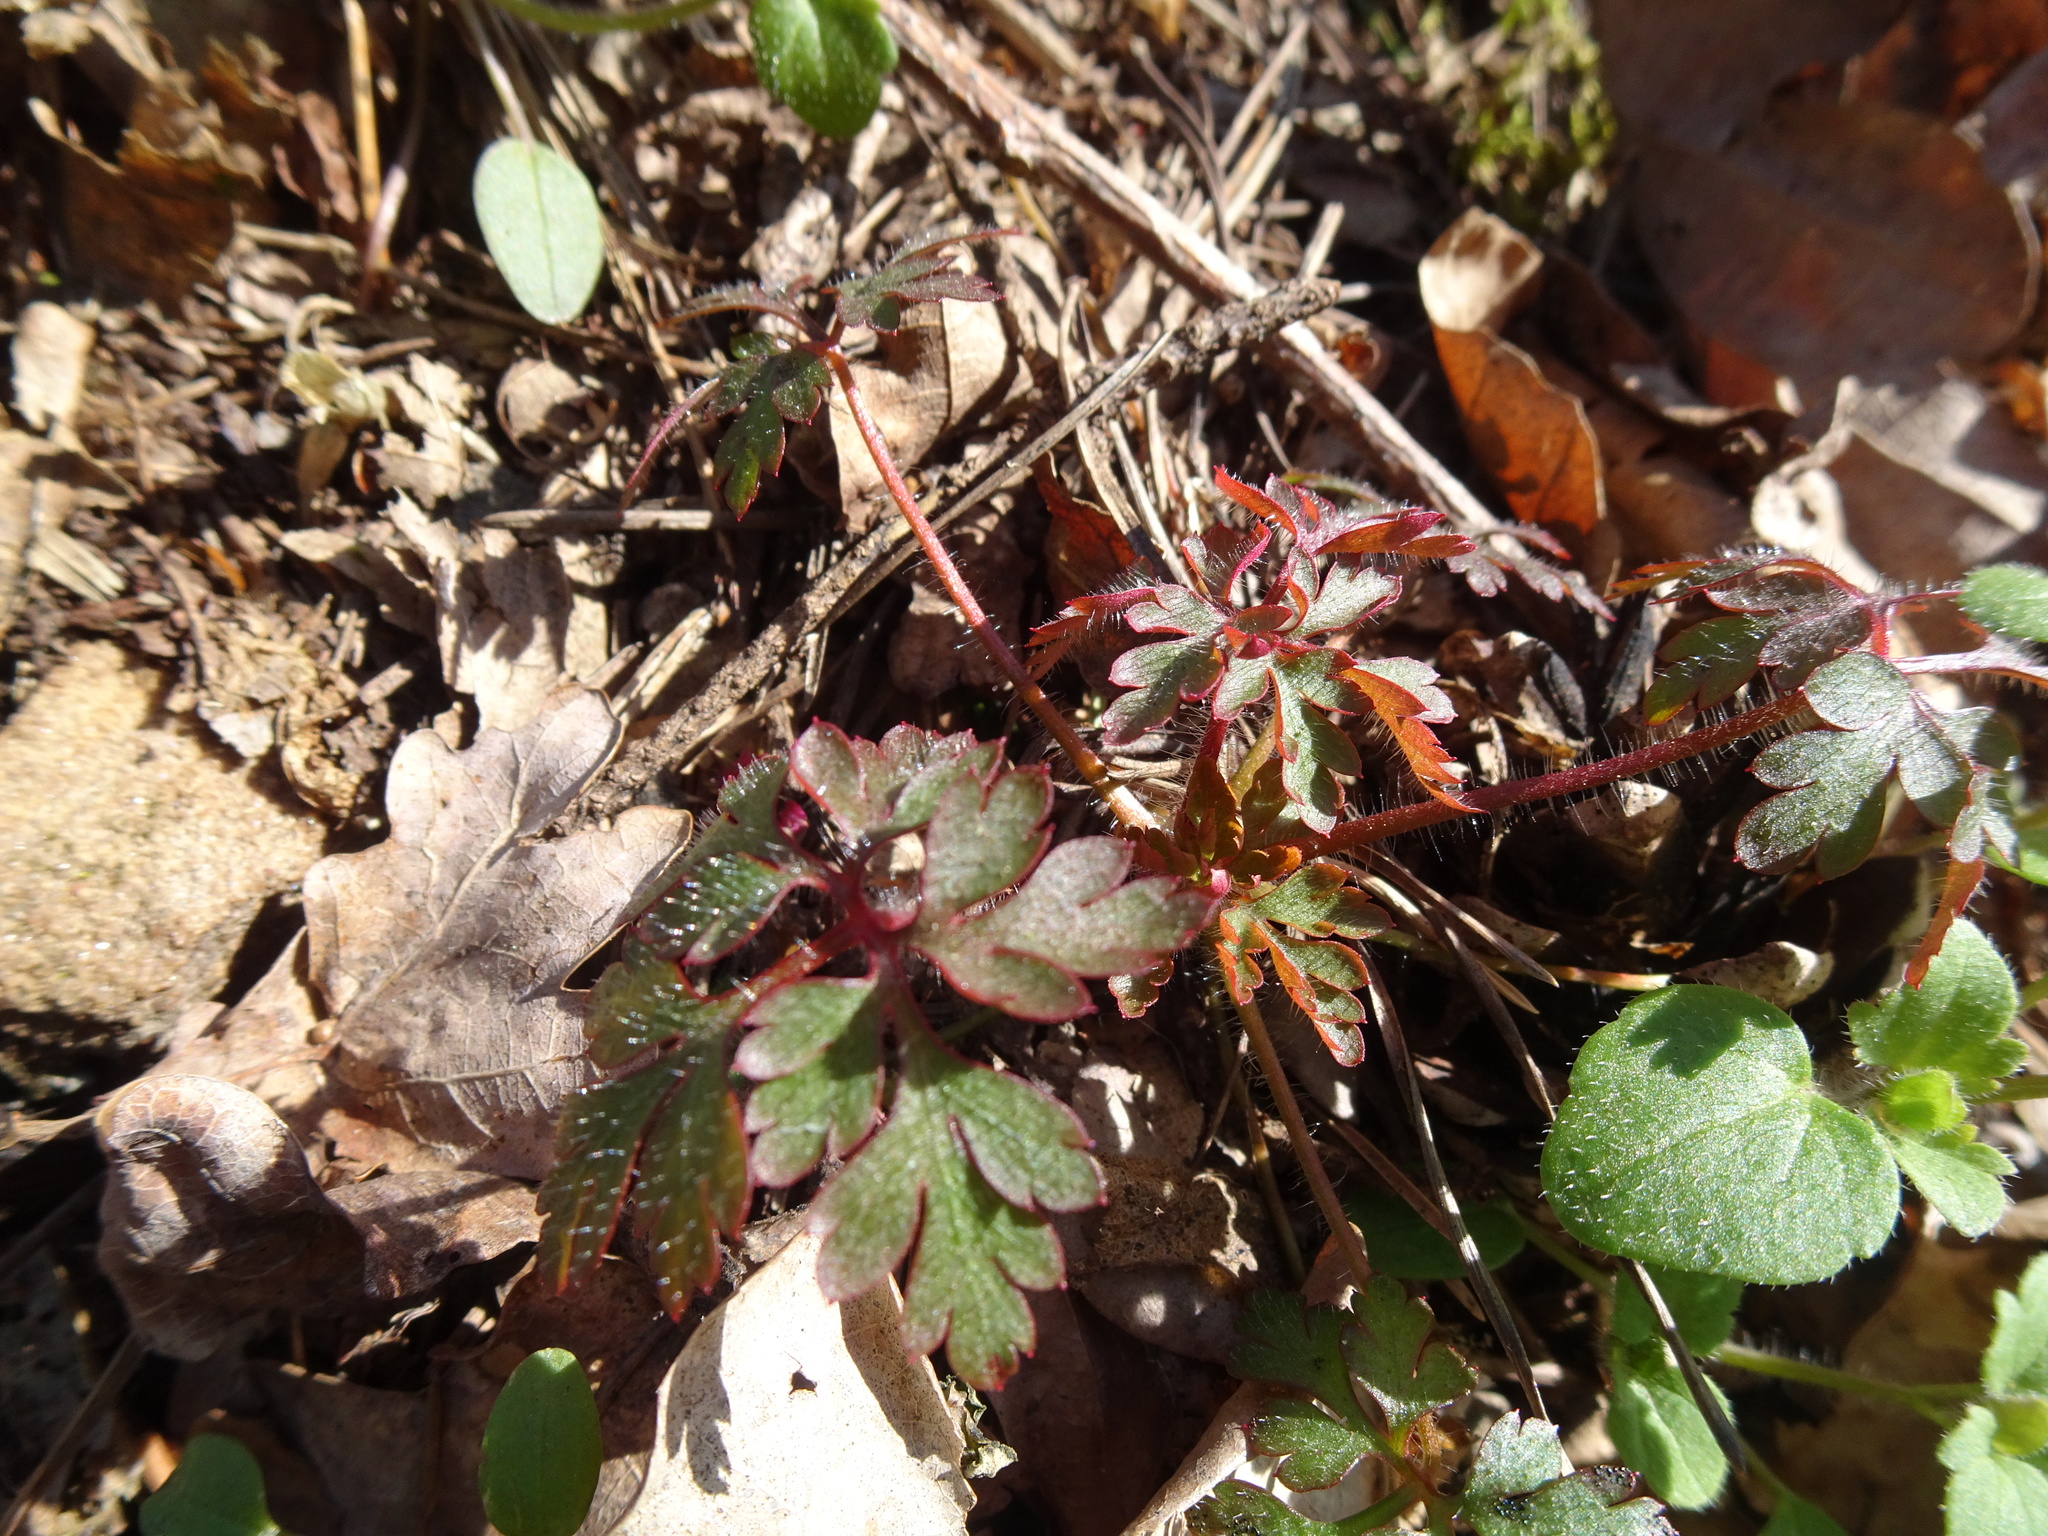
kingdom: Plantae
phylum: Tracheophyta
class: Magnoliopsida
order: Geraniales
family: Geraniaceae
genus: Geranium
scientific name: Geranium robertianum
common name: Herb-robert
